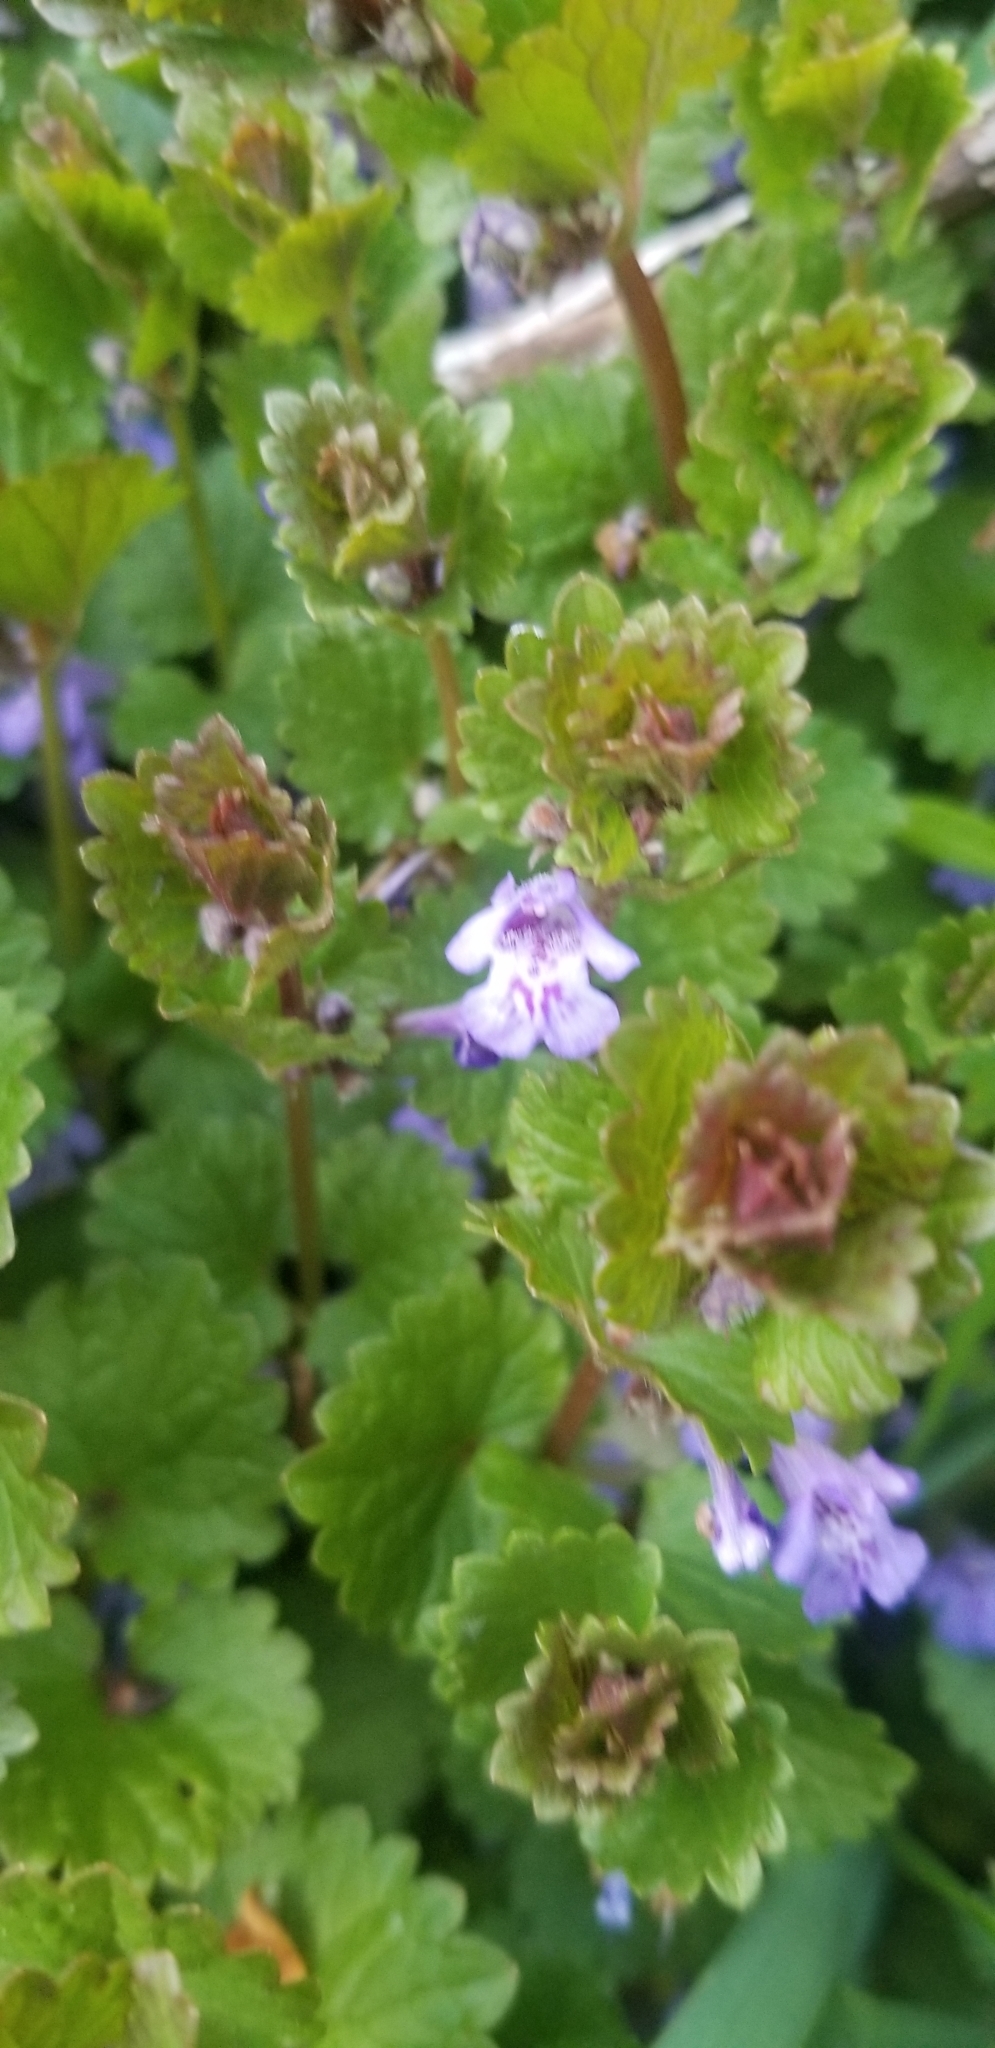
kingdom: Plantae
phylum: Tracheophyta
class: Magnoliopsida
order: Lamiales
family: Lamiaceae
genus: Glechoma
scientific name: Glechoma hederacea
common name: Ground ivy
